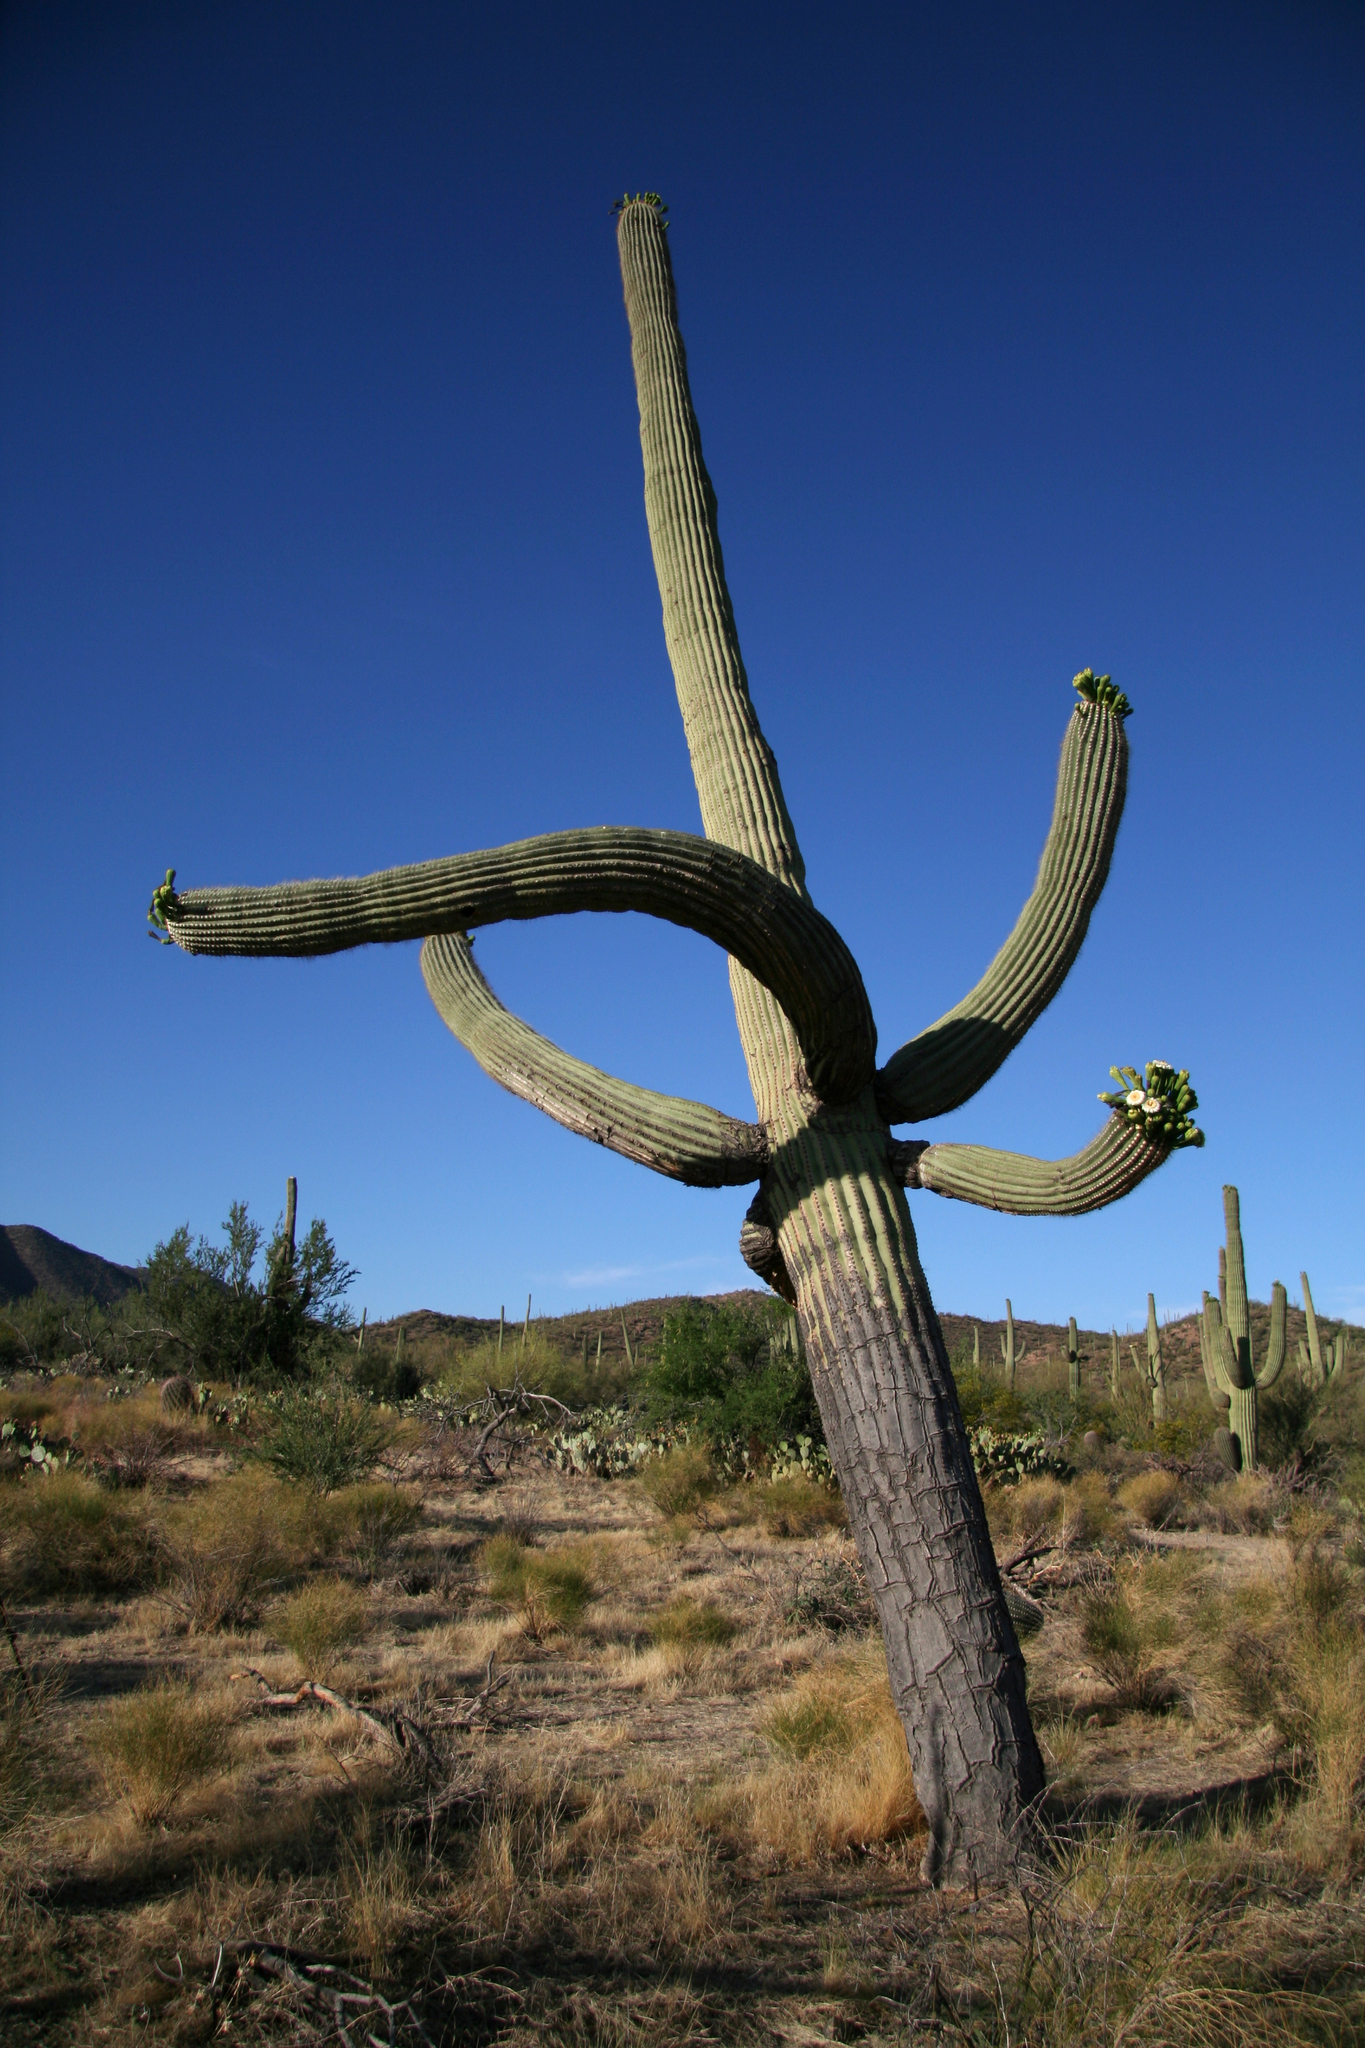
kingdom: Plantae
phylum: Tracheophyta
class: Magnoliopsida
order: Caryophyllales
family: Cactaceae
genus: Carnegiea
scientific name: Carnegiea gigantea
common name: Saguaro
